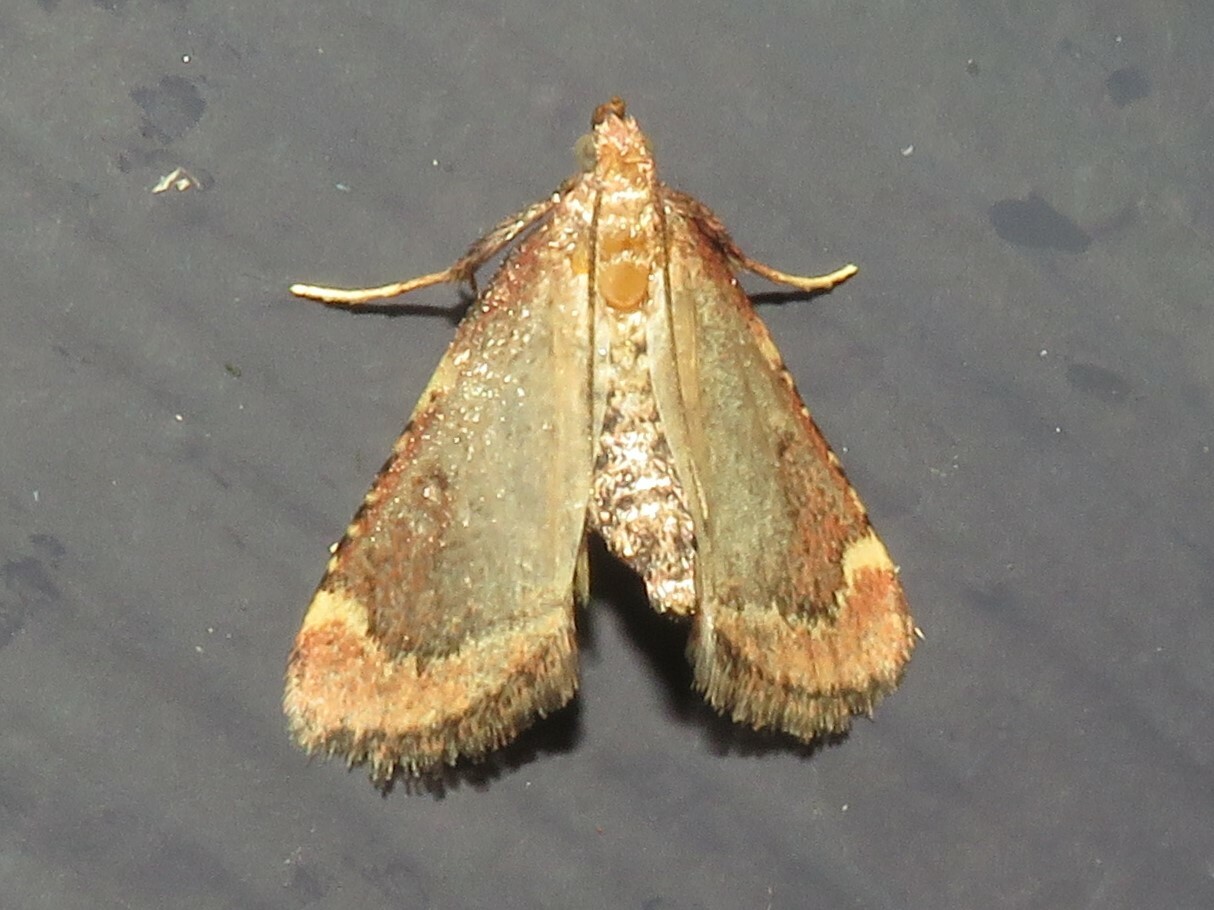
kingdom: Animalia
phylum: Arthropoda
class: Insecta
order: Lepidoptera
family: Pyralidae
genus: Hypsopygia
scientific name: Hypsopygia intermedialis
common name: Red-shawled moth
